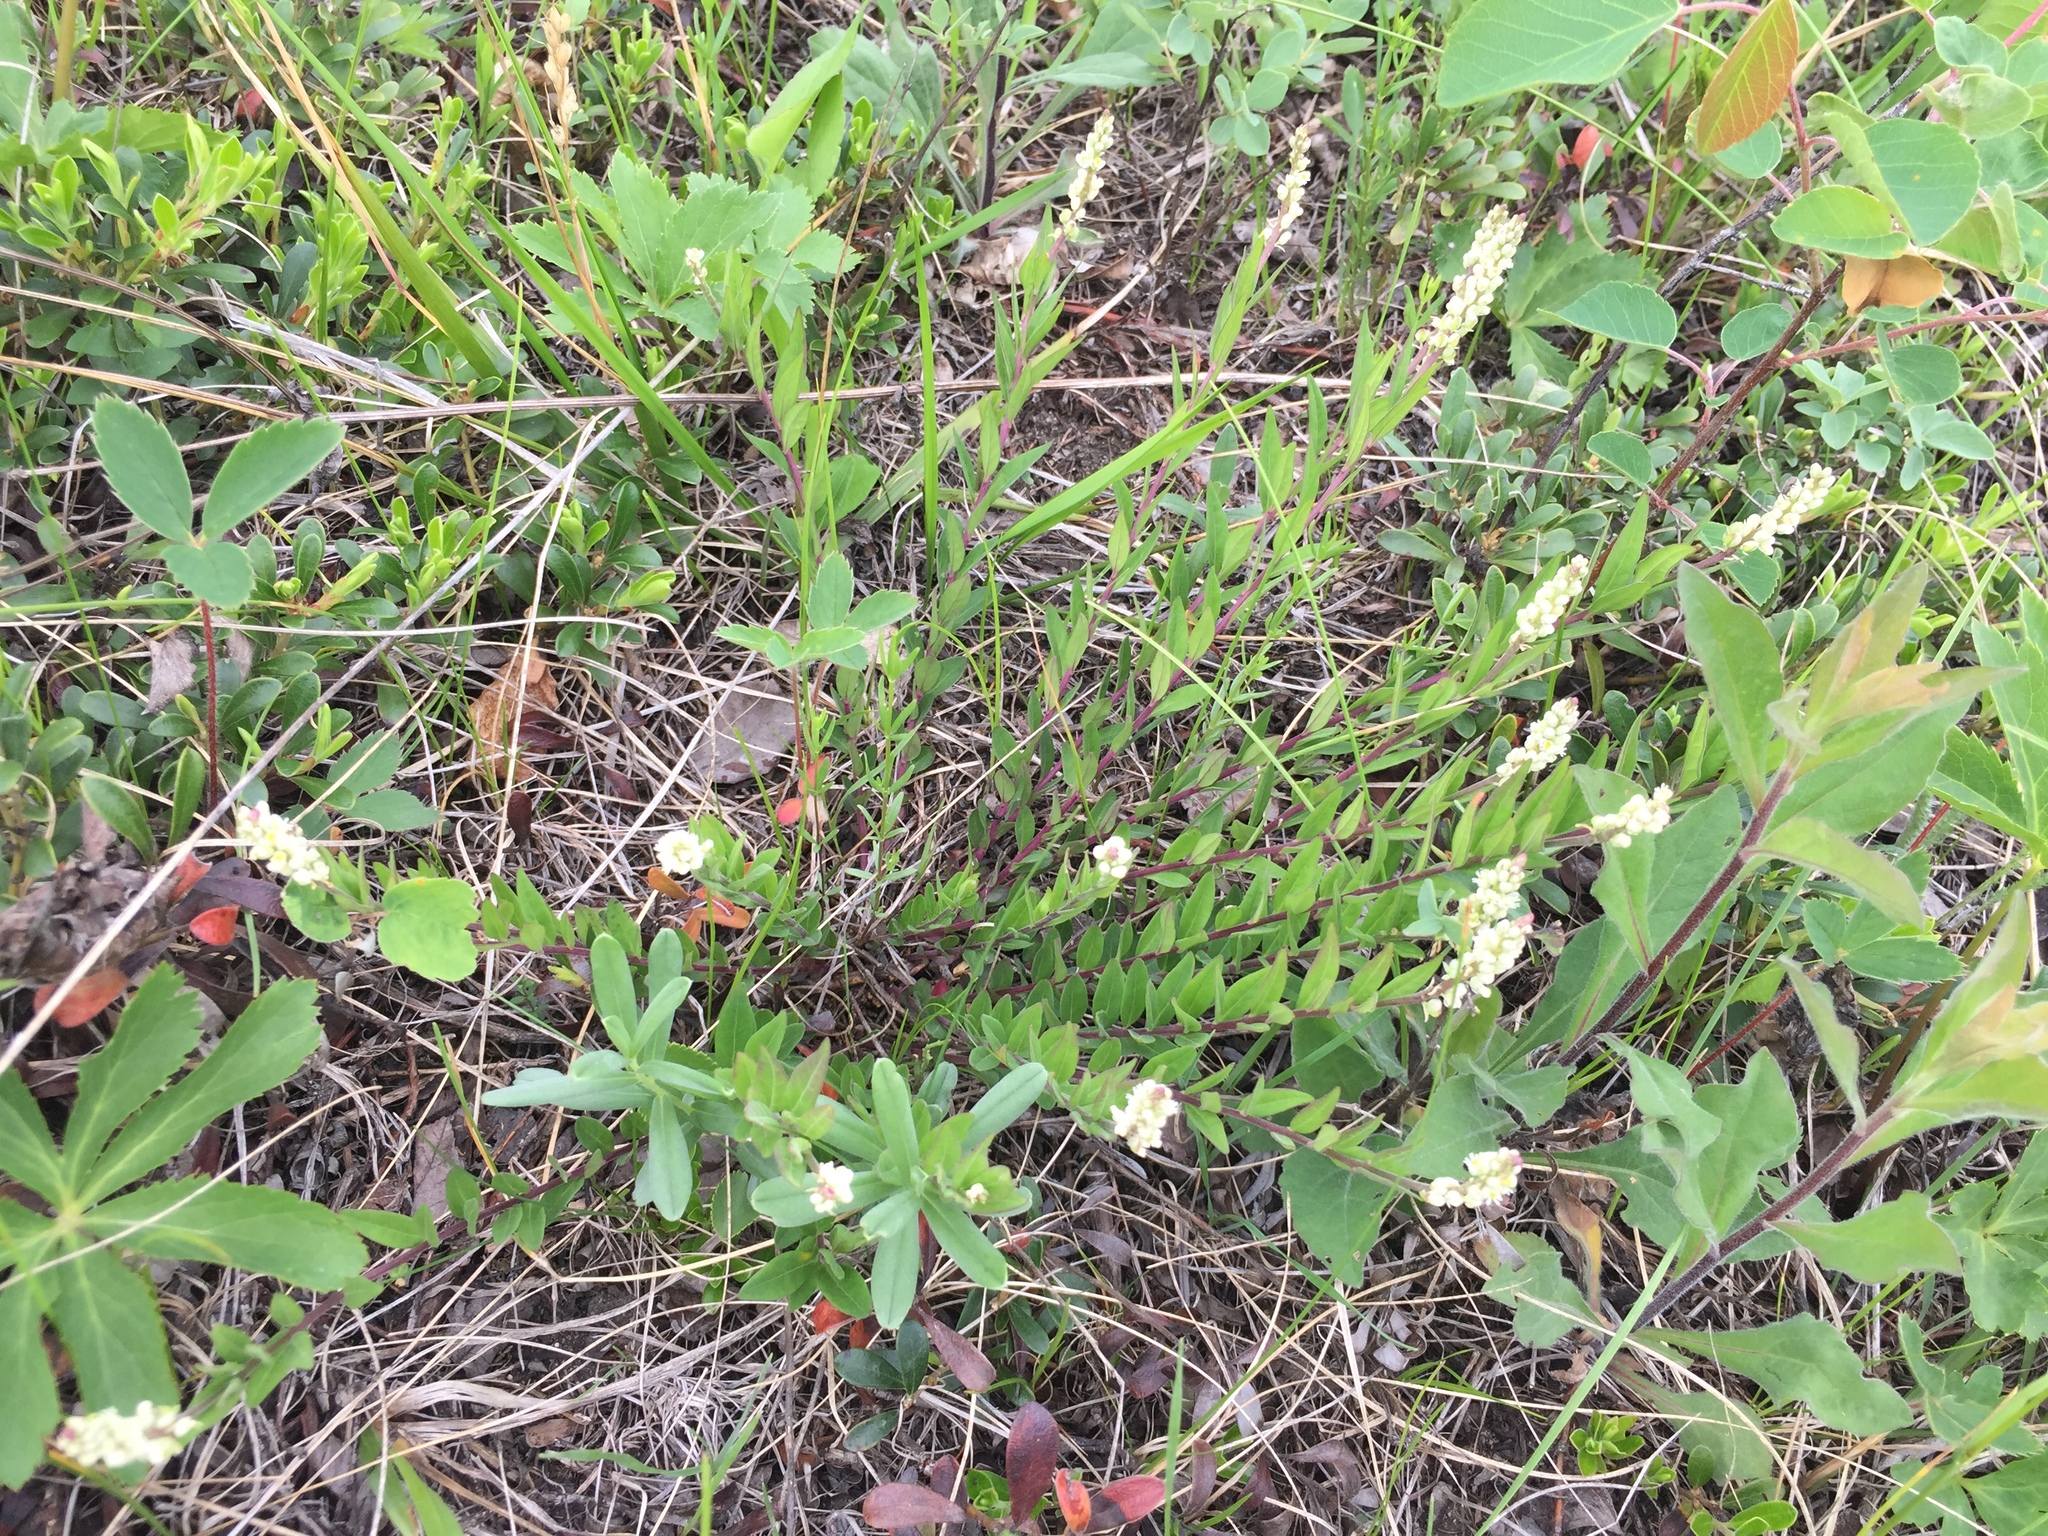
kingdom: Plantae
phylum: Tracheophyta
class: Magnoliopsida
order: Fabales
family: Polygalaceae
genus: Polygala
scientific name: Polygala senega
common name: Seneca snakeroot
